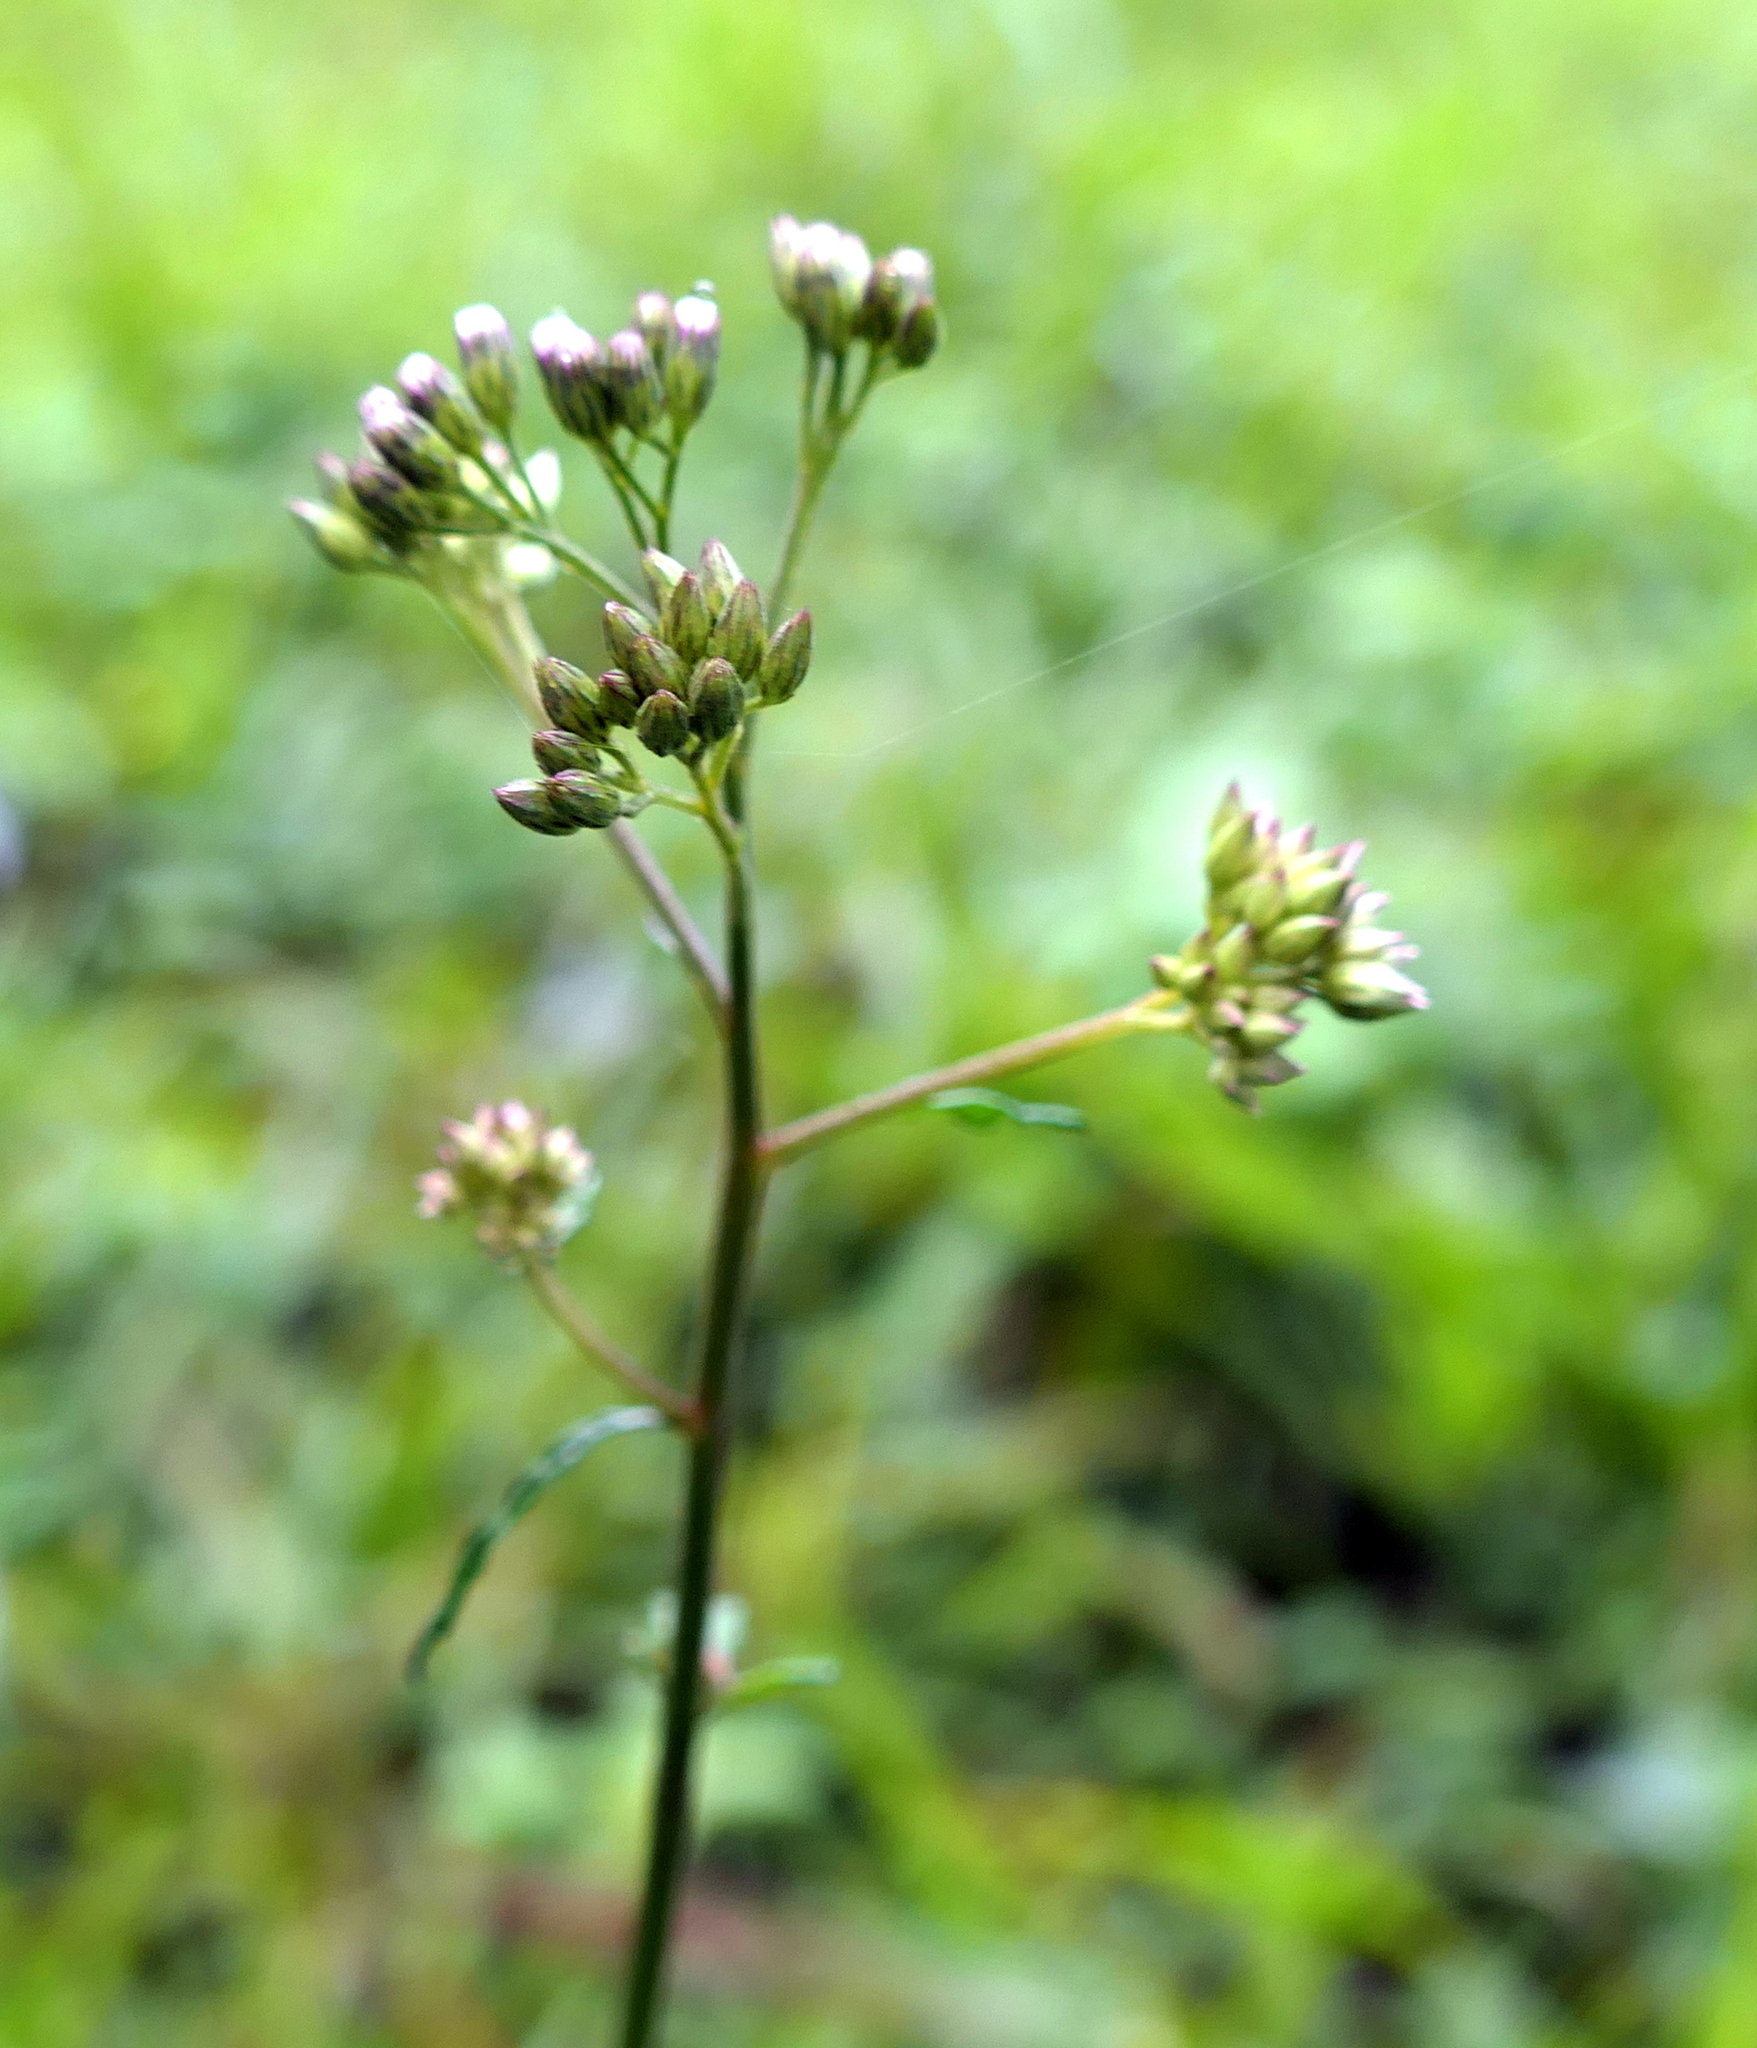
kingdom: Plantae
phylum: Tracheophyta
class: Magnoliopsida
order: Asterales
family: Asteraceae
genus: Cyanthillium
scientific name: Cyanthillium cinereum
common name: Little ironweed
